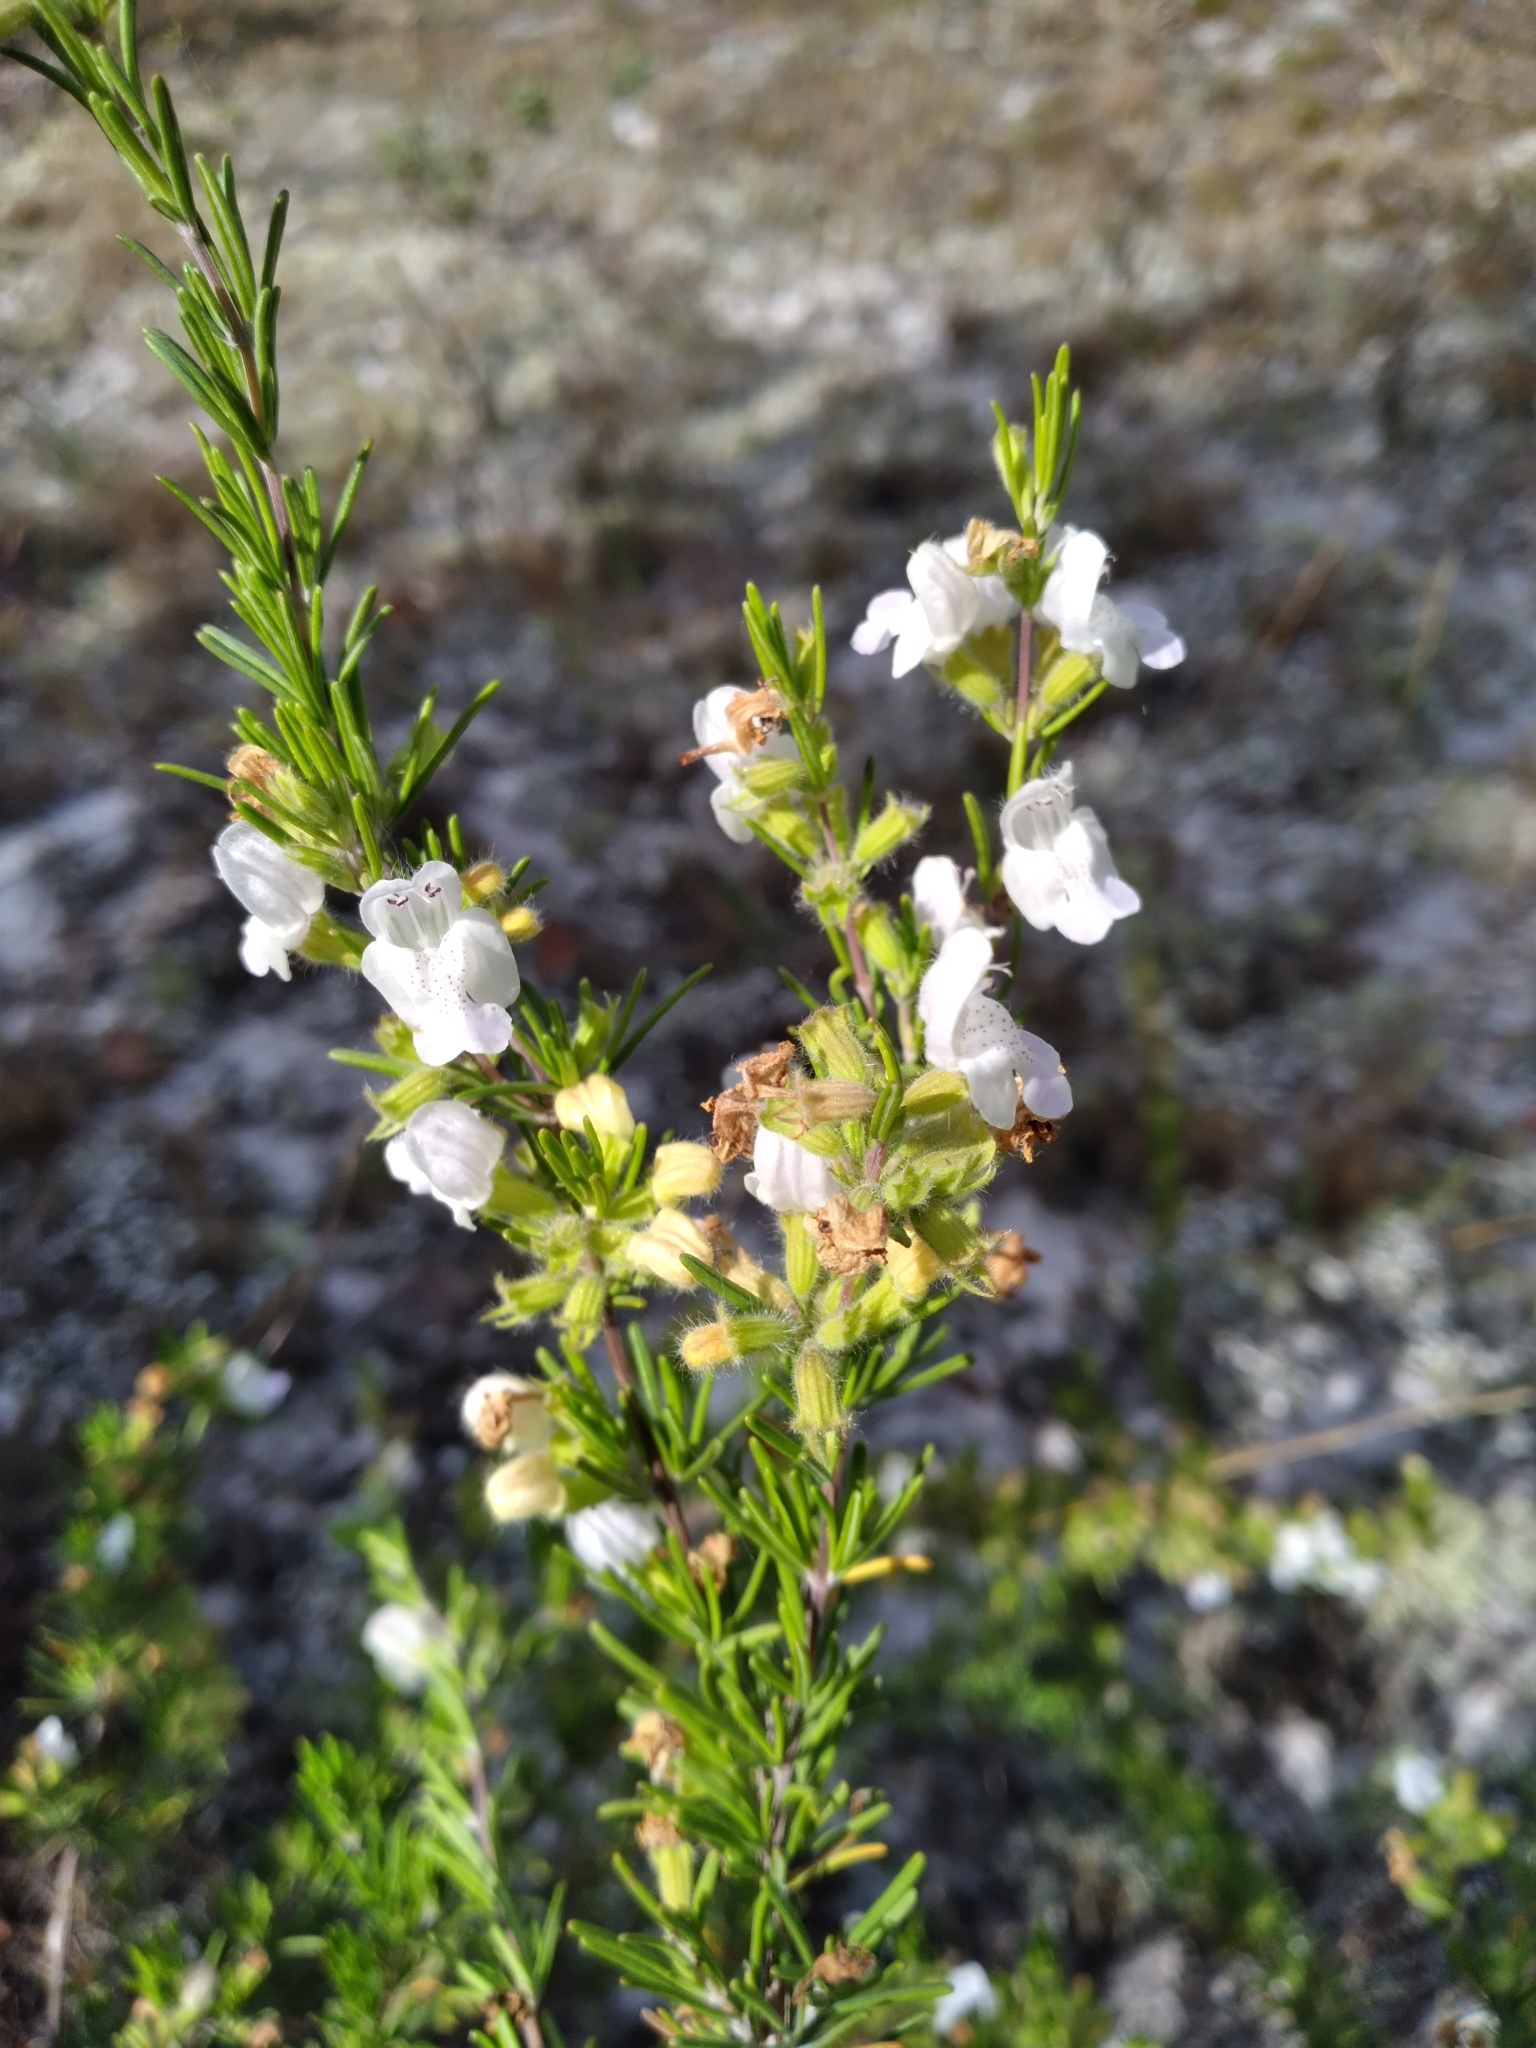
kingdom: Plantae
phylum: Tracheophyta
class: Magnoliopsida
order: Lamiales
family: Lamiaceae
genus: Conradina
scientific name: Conradina canescens
